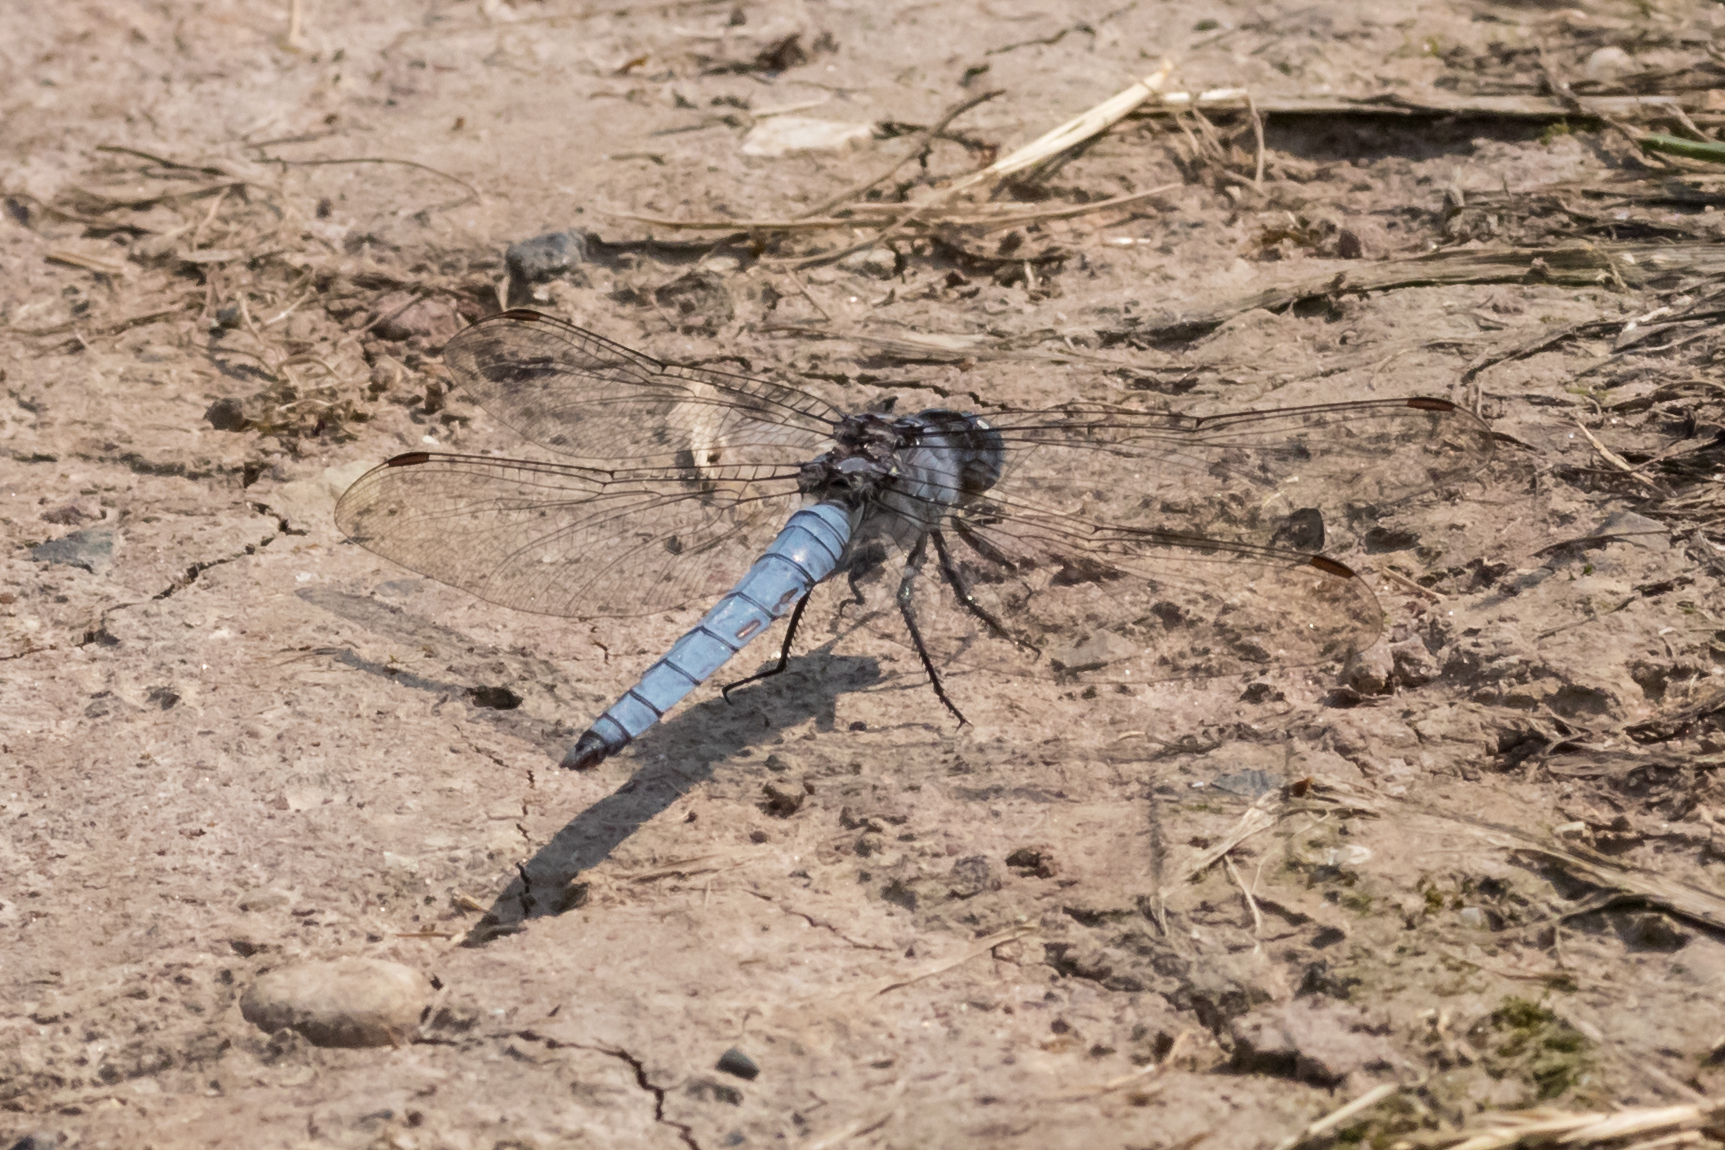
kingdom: Animalia
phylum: Arthropoda
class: Insecta
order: Odonata
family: Libellulidae
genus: Orthetrum
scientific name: Orthetrum brunneum
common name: Southern skimmer
